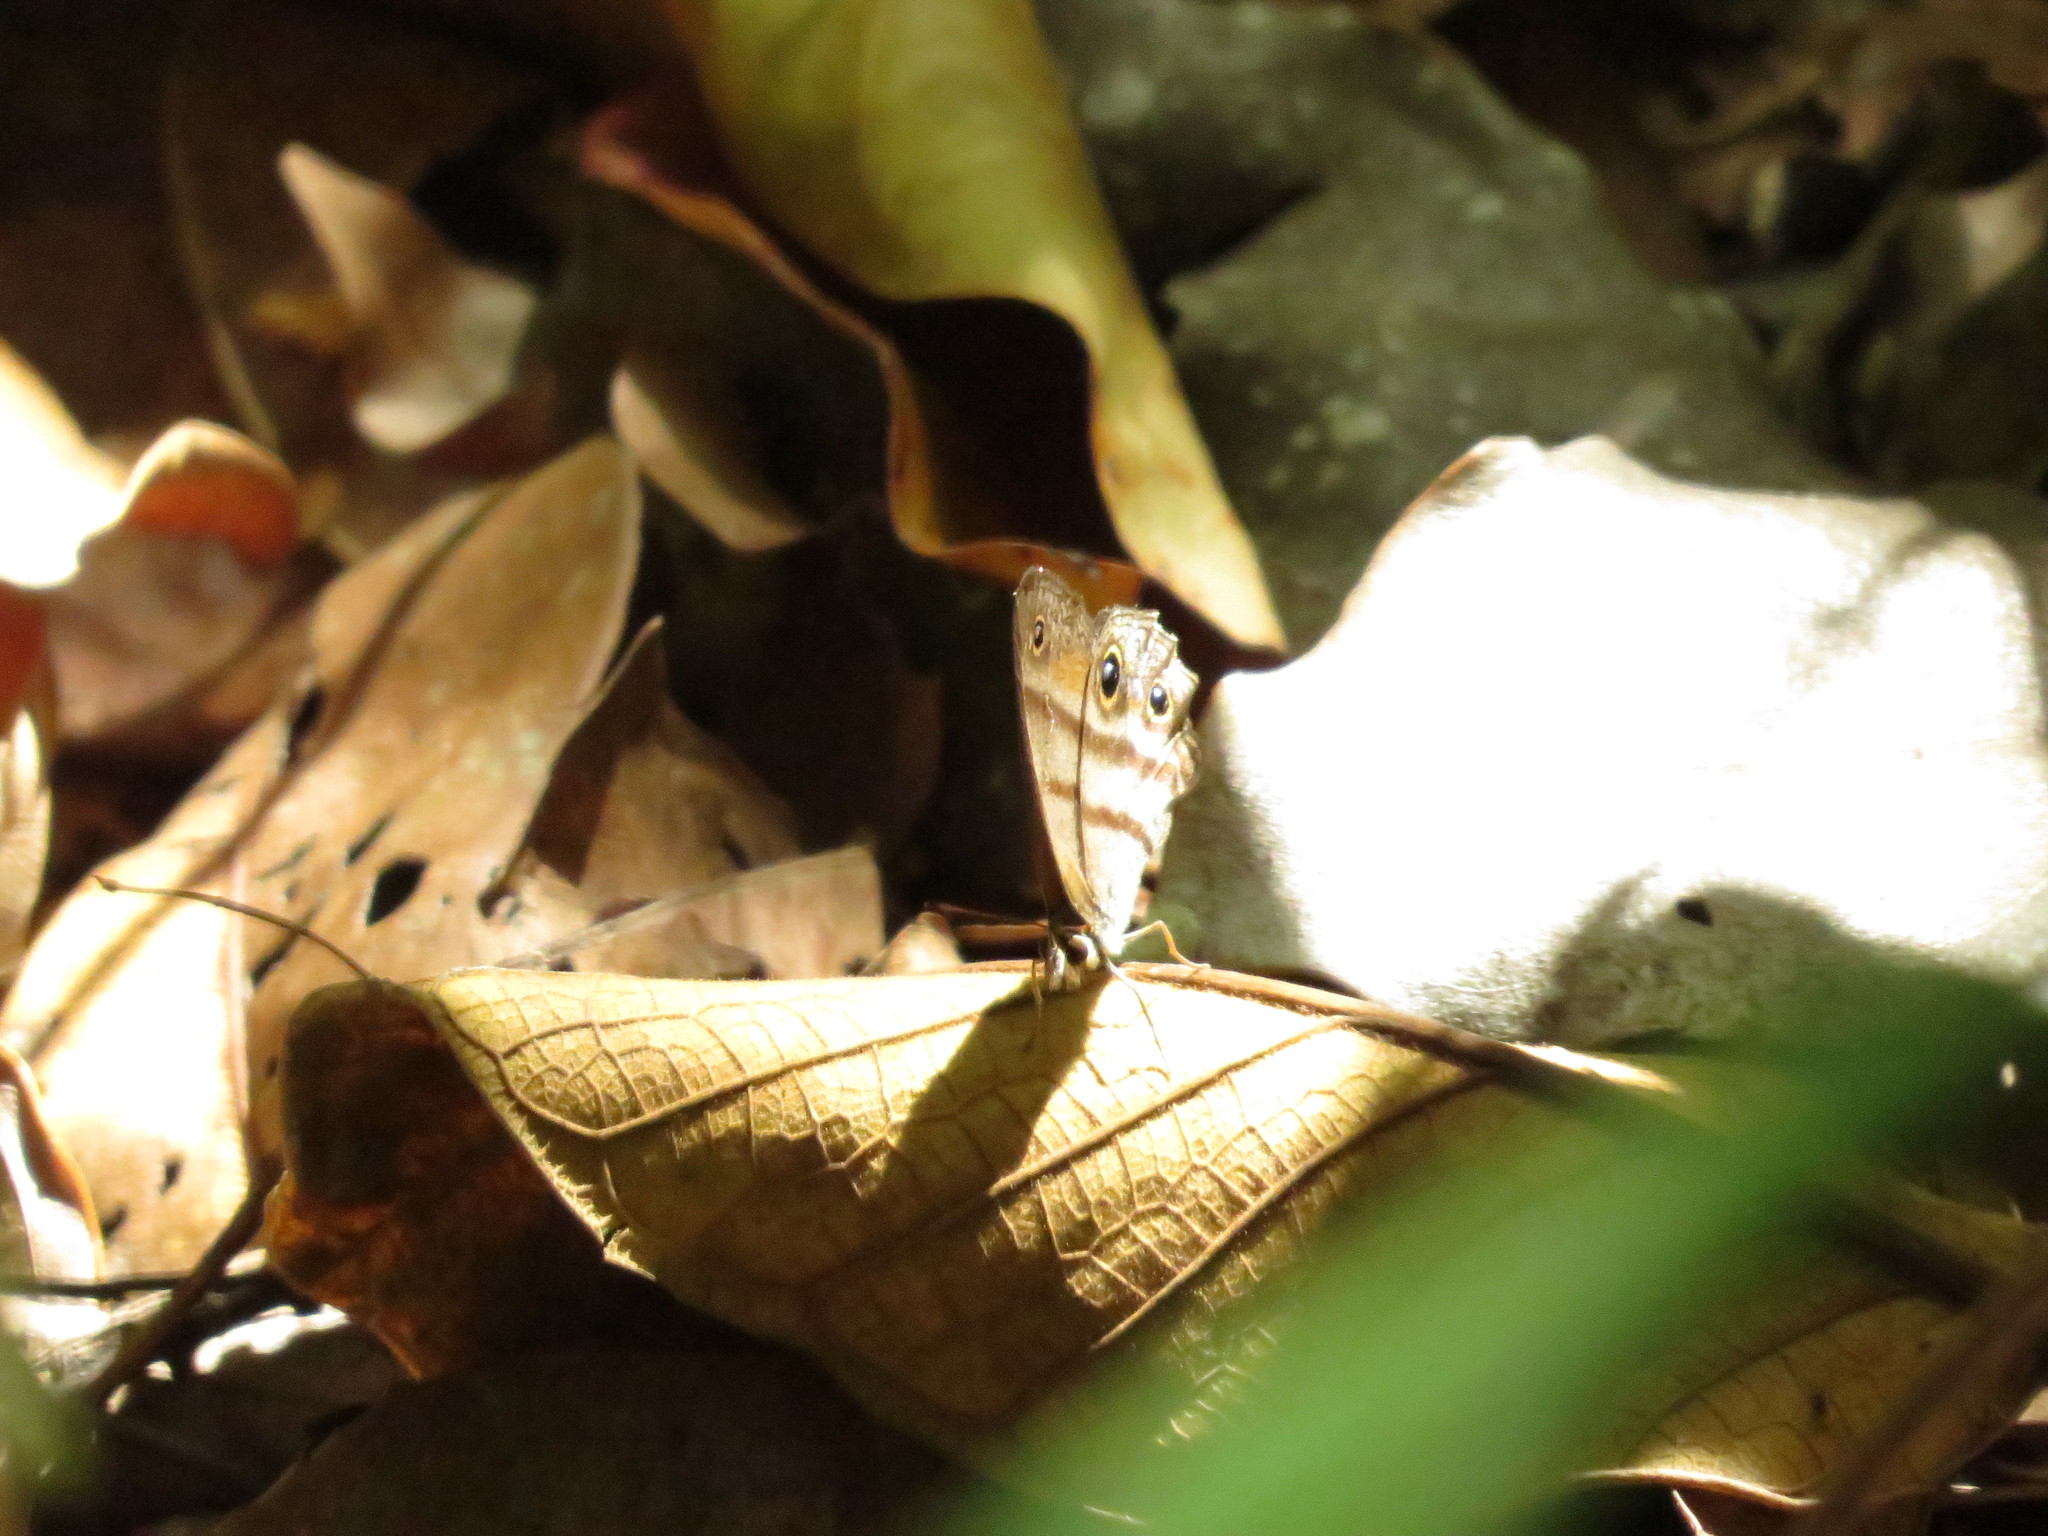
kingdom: Animalia
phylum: Arthropoda
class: Insecta
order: Lepidoptera
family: Nymphalidae
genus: Euptychia
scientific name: Euptychia
